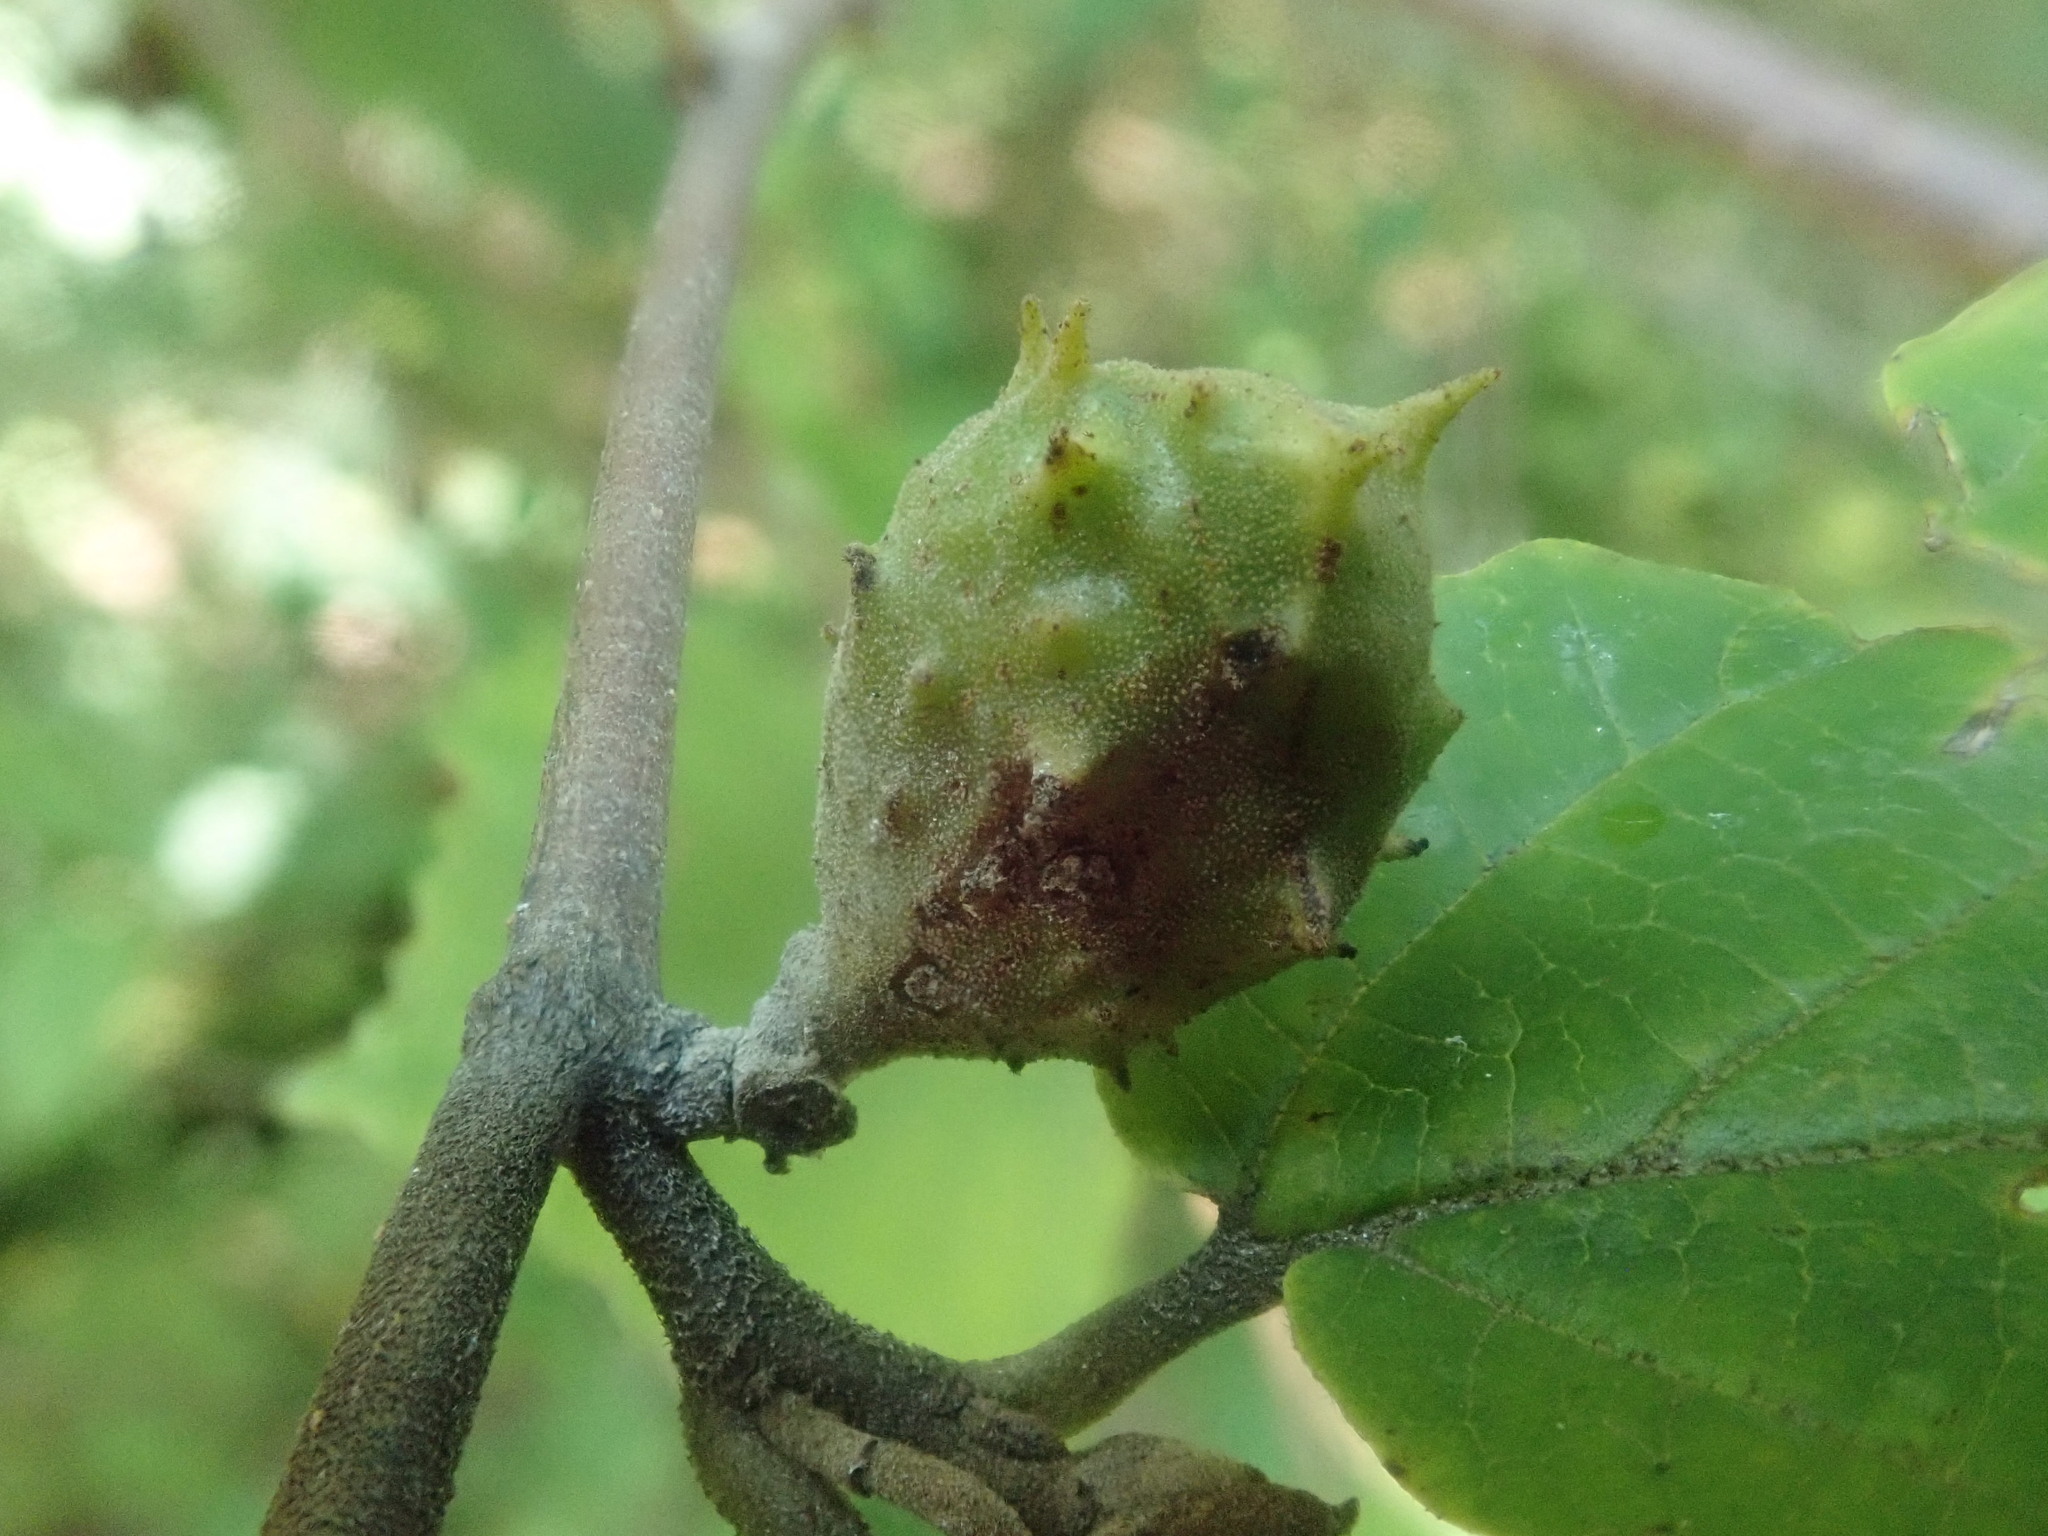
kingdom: Animalia
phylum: Arthropoda
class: Insecta
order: Hemiptera
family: Aphididae
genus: Hamamelistes
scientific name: Hamamelistes spinosus
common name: Witch hazel gall aphid
